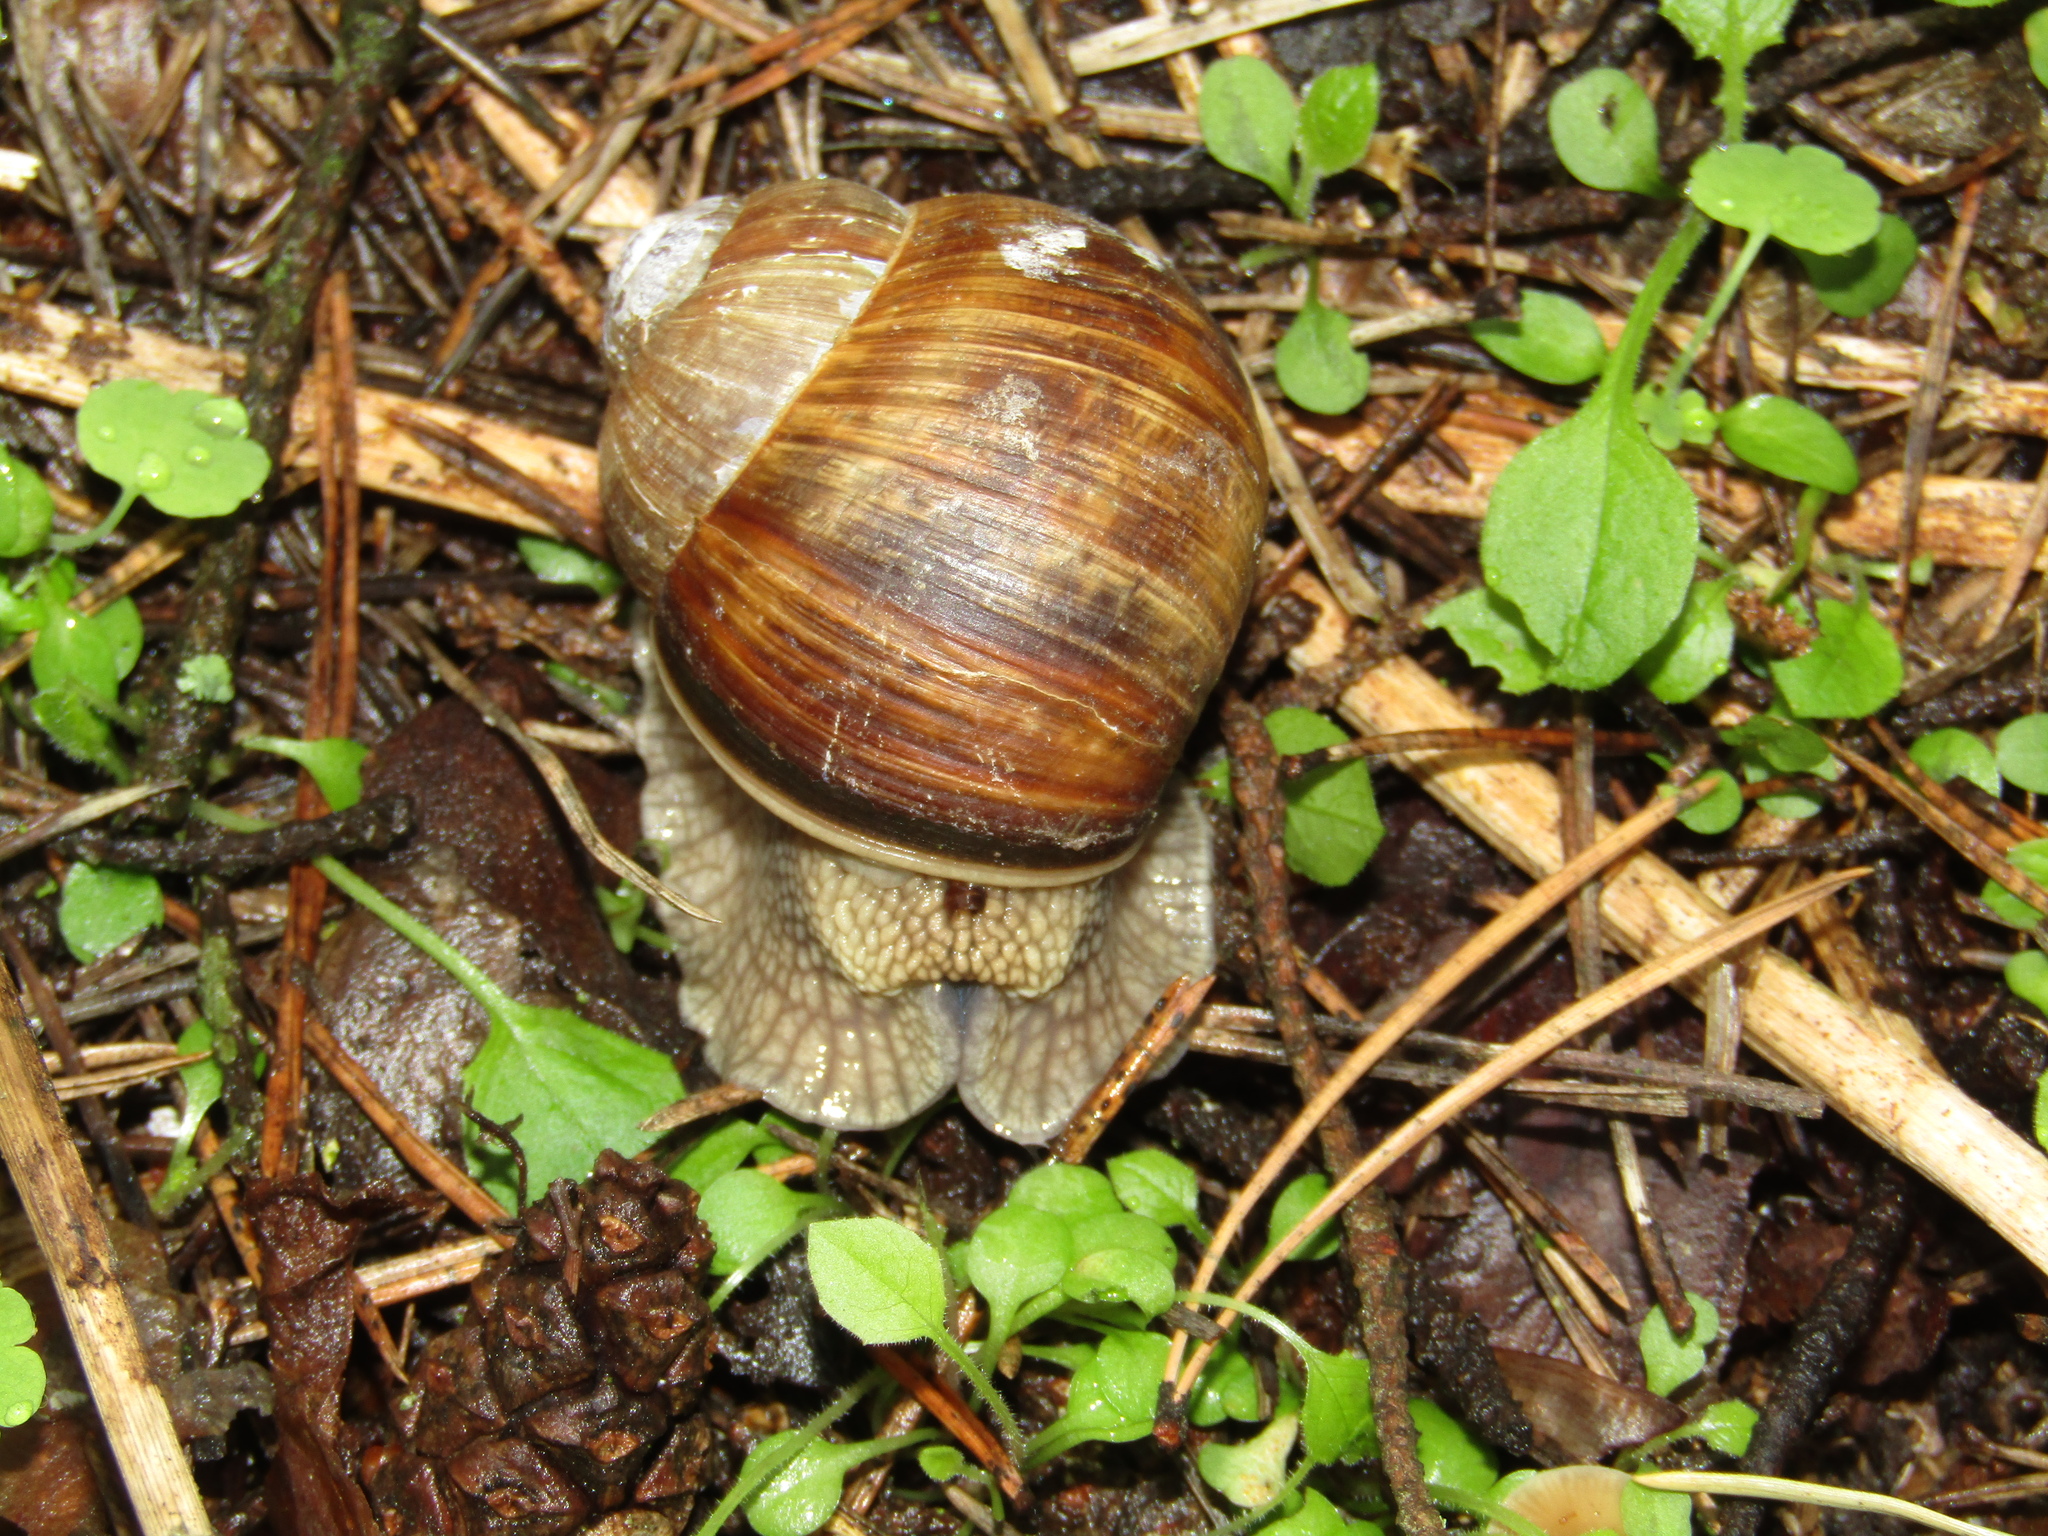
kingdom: Animalia
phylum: Mollusca
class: Gastropoda
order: Stylommatophora
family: Helicidae
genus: Helix
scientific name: Helix pomatia
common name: Roman snail
